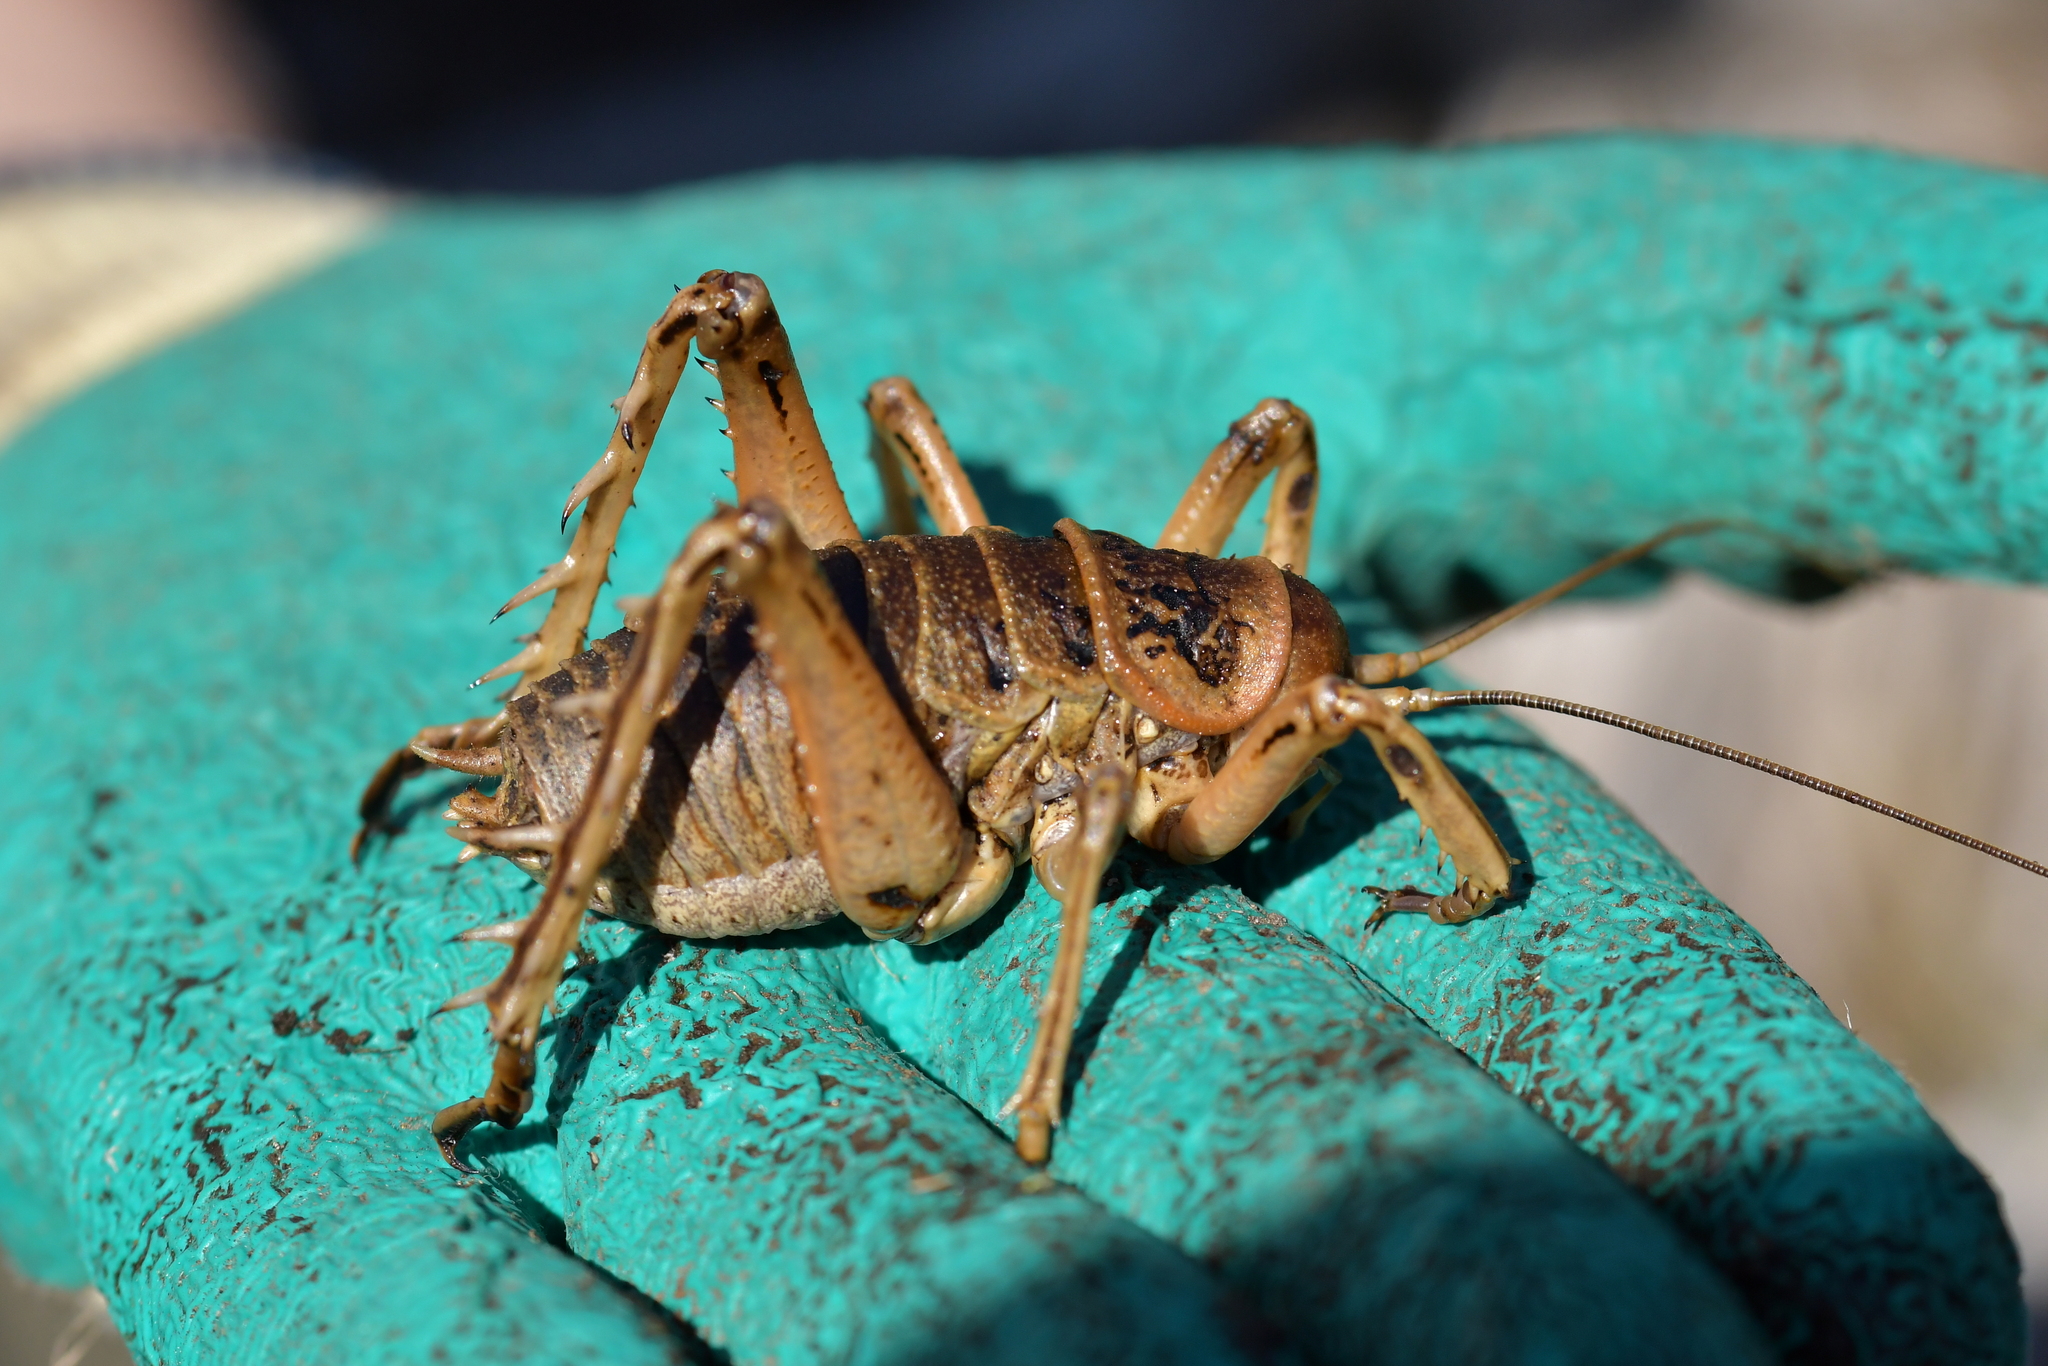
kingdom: Animalia
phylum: Arthropoda
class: Insecta
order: Orthoptera
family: Anostostomatidae
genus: Deinacrida
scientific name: Deinacrida rugosa
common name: Stephens island weta
